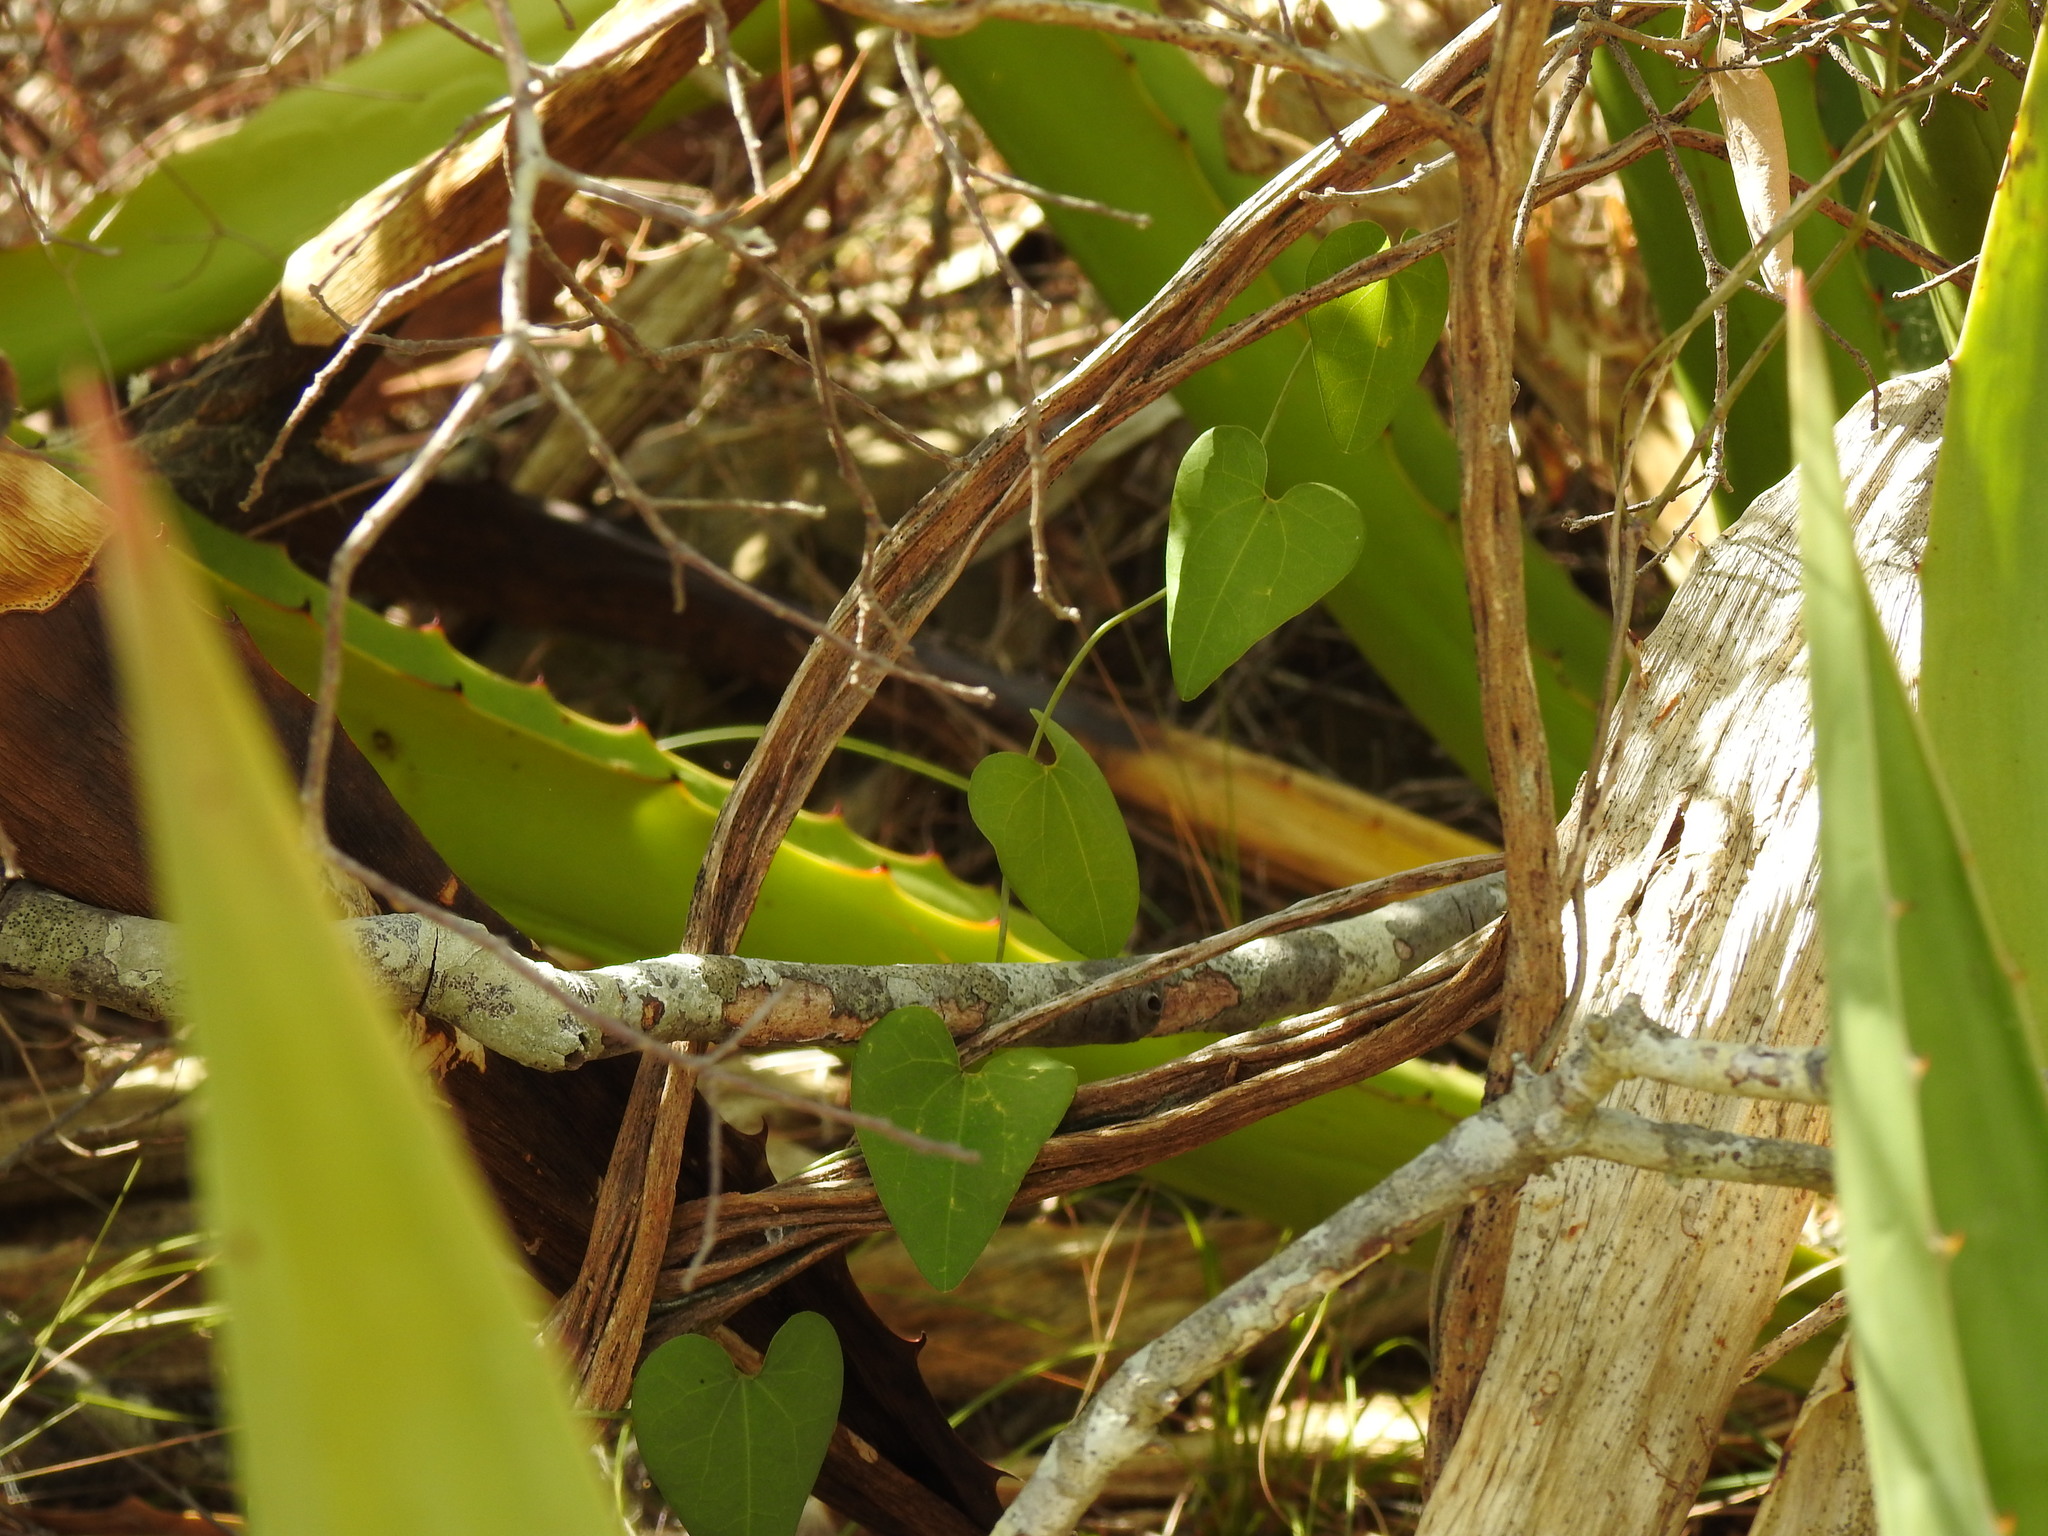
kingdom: Plantae
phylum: Tracheophyta
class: Magnoliopsida
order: Piperales
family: Aristolochiaceae
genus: Aristolochia
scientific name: Aristolochia baetica
